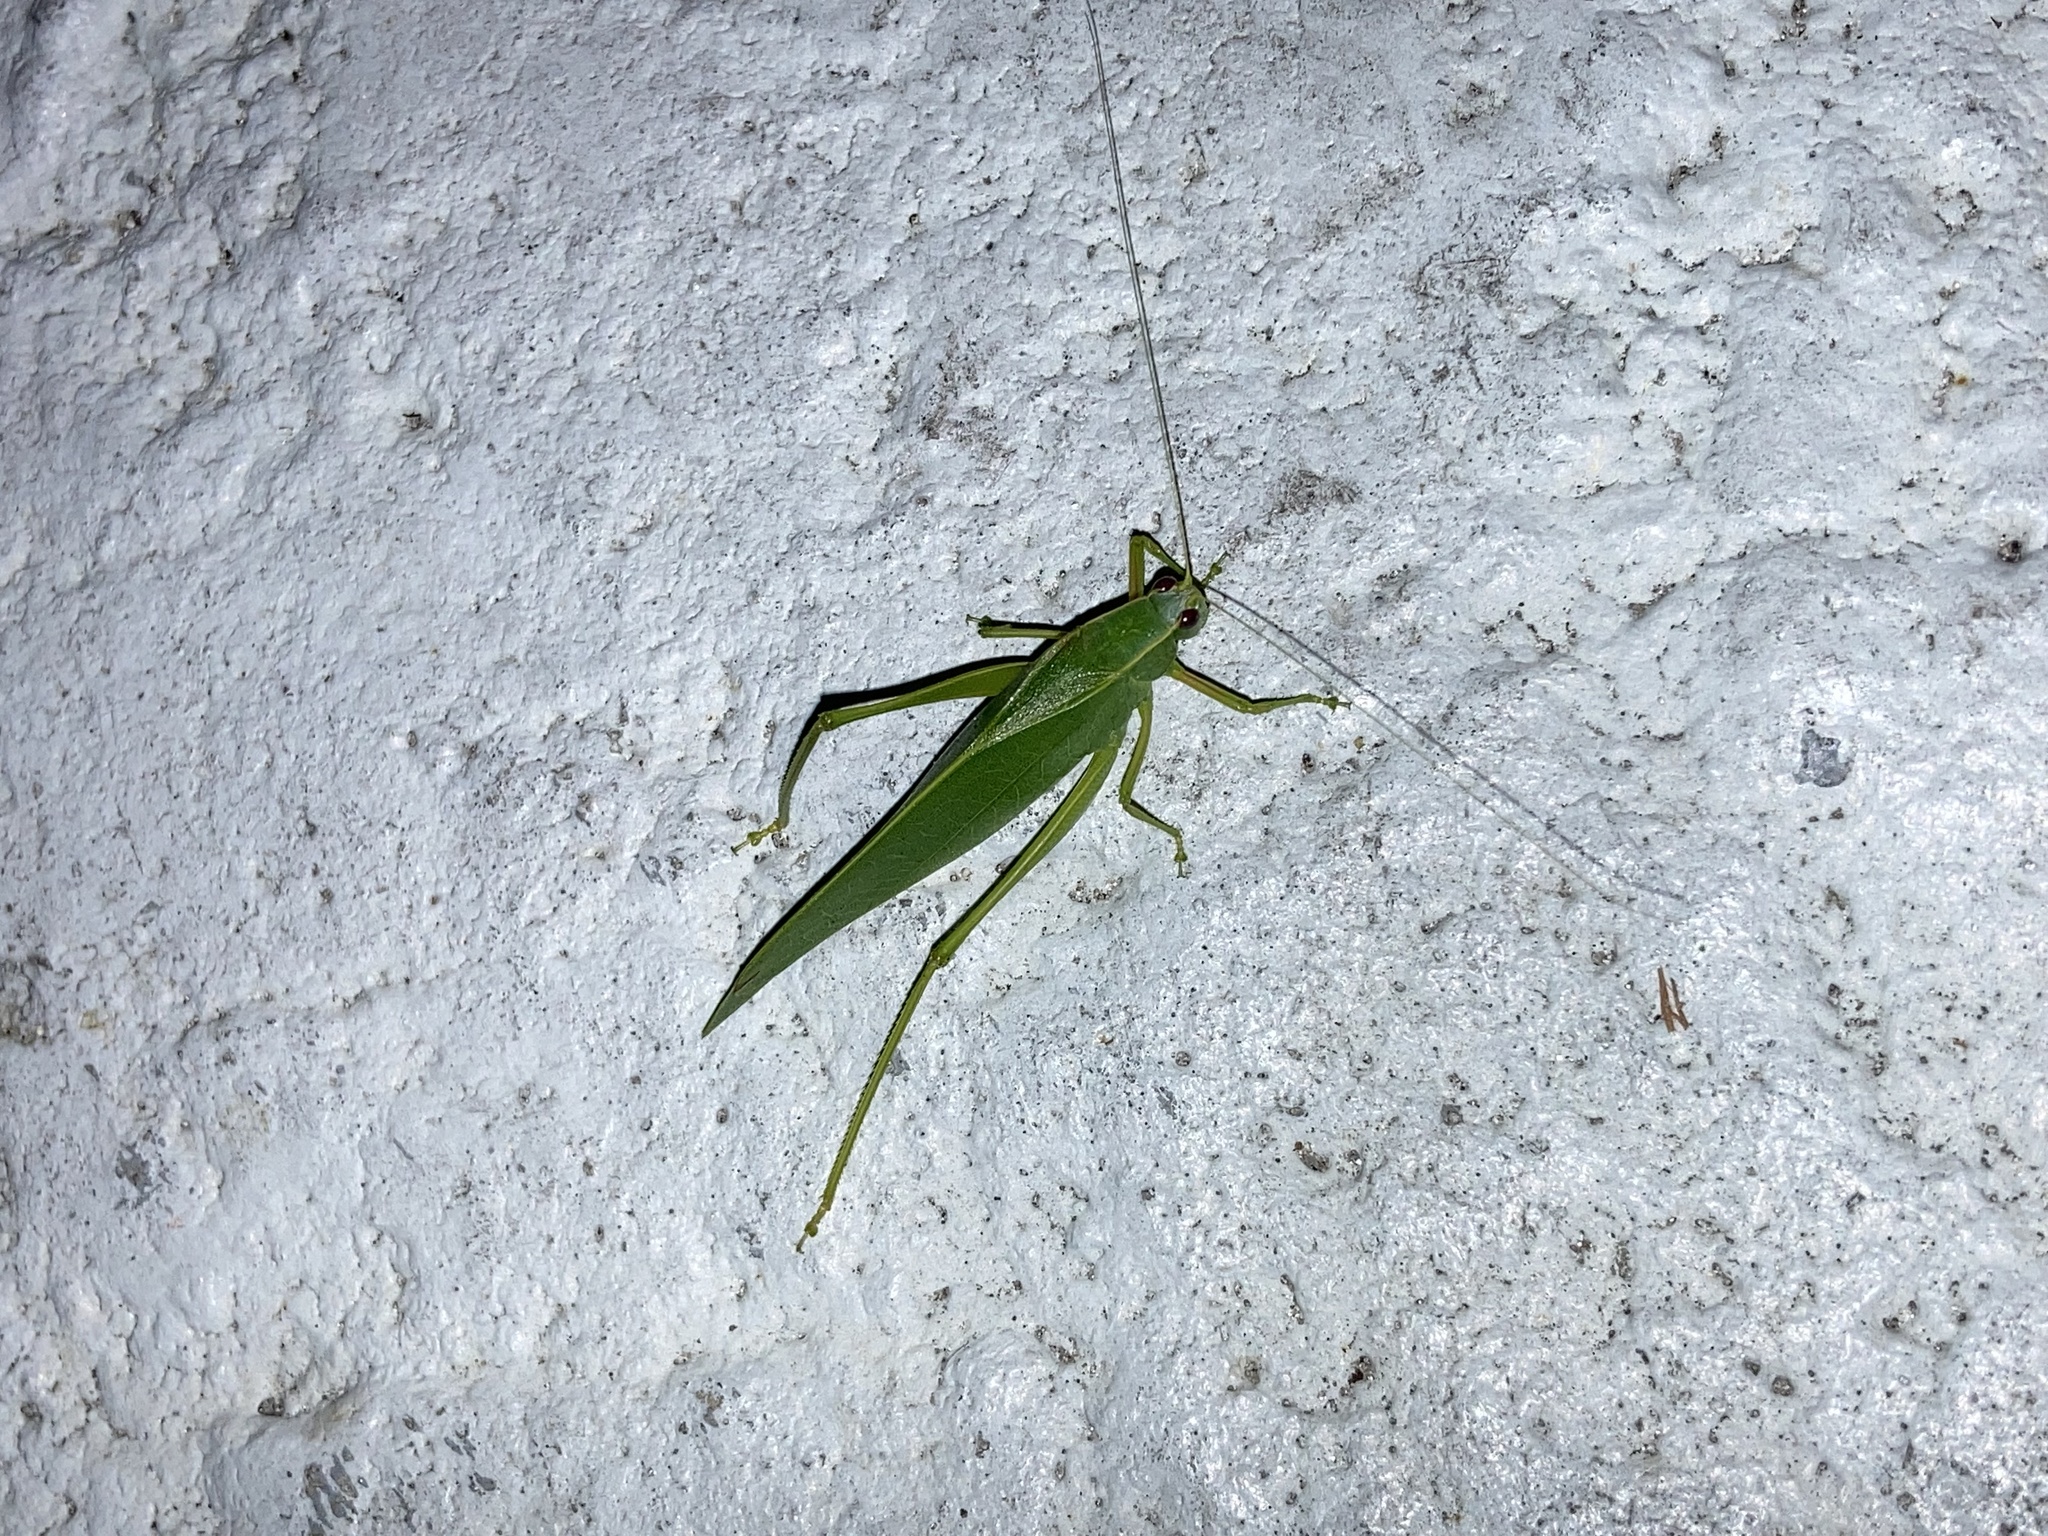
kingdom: Animalia
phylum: Arthropoda
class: Insecta
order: Orthoptera
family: Tettigoniidae
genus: Turpilia
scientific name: Turpilia rostrata
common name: Narrow-beaked katydid
